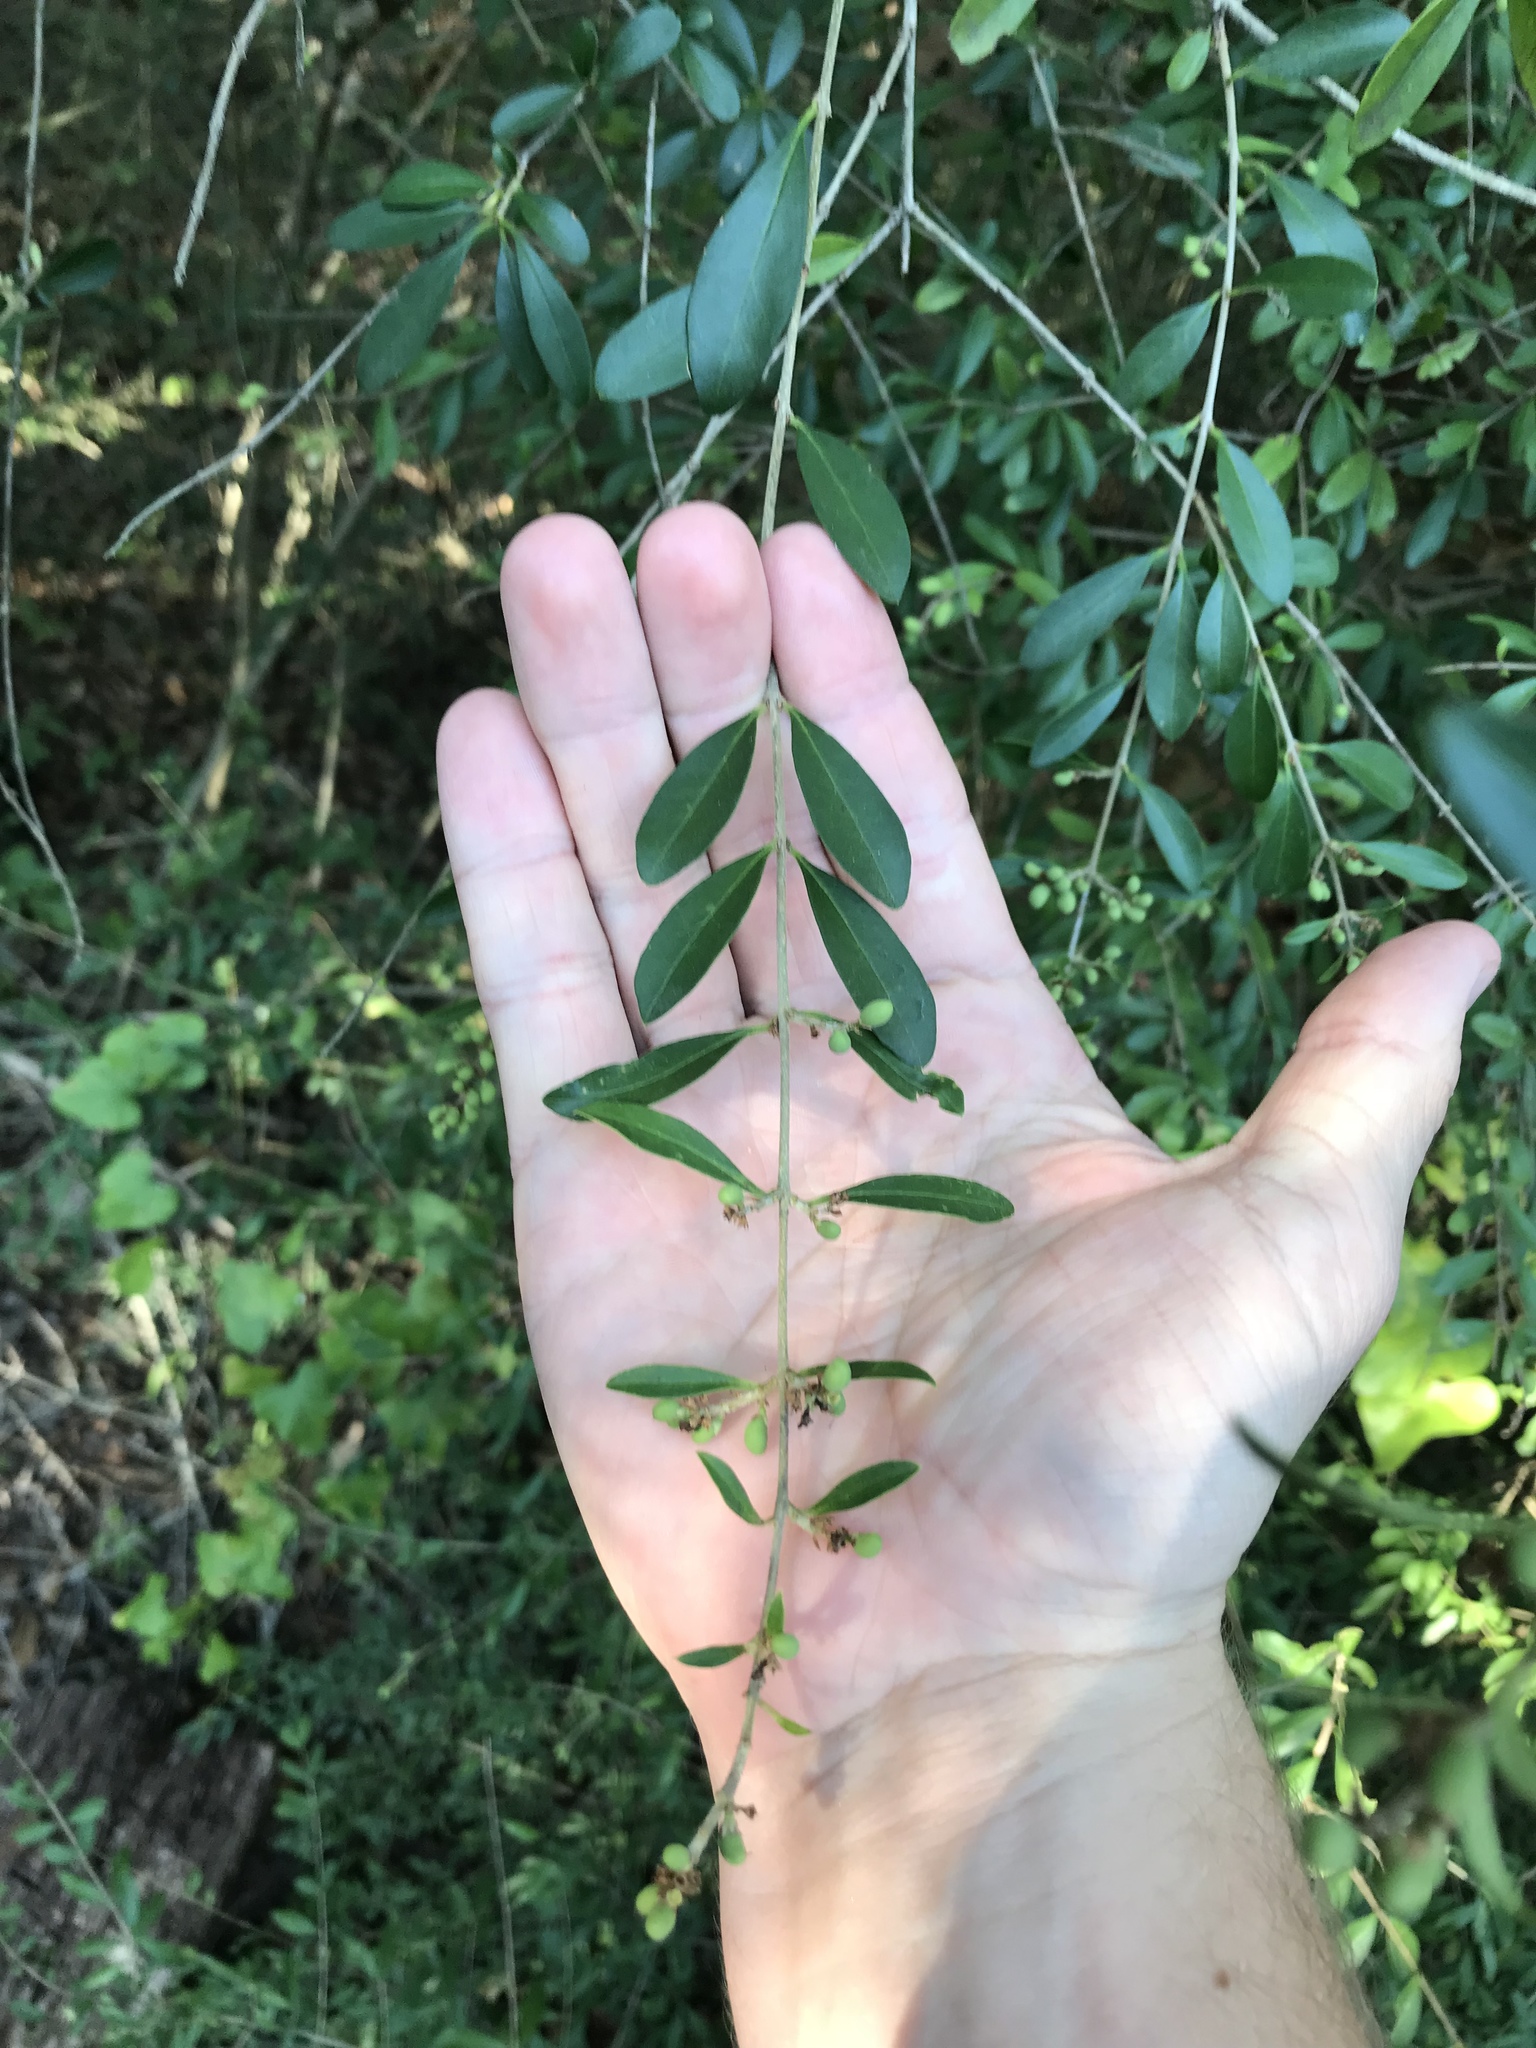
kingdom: Plantae
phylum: Tracheophyta
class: Magnoliopsida
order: Lamiales
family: Oleaceae
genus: Ligustrum
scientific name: Ligustrum quihoui
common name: Waxyleaf privet
